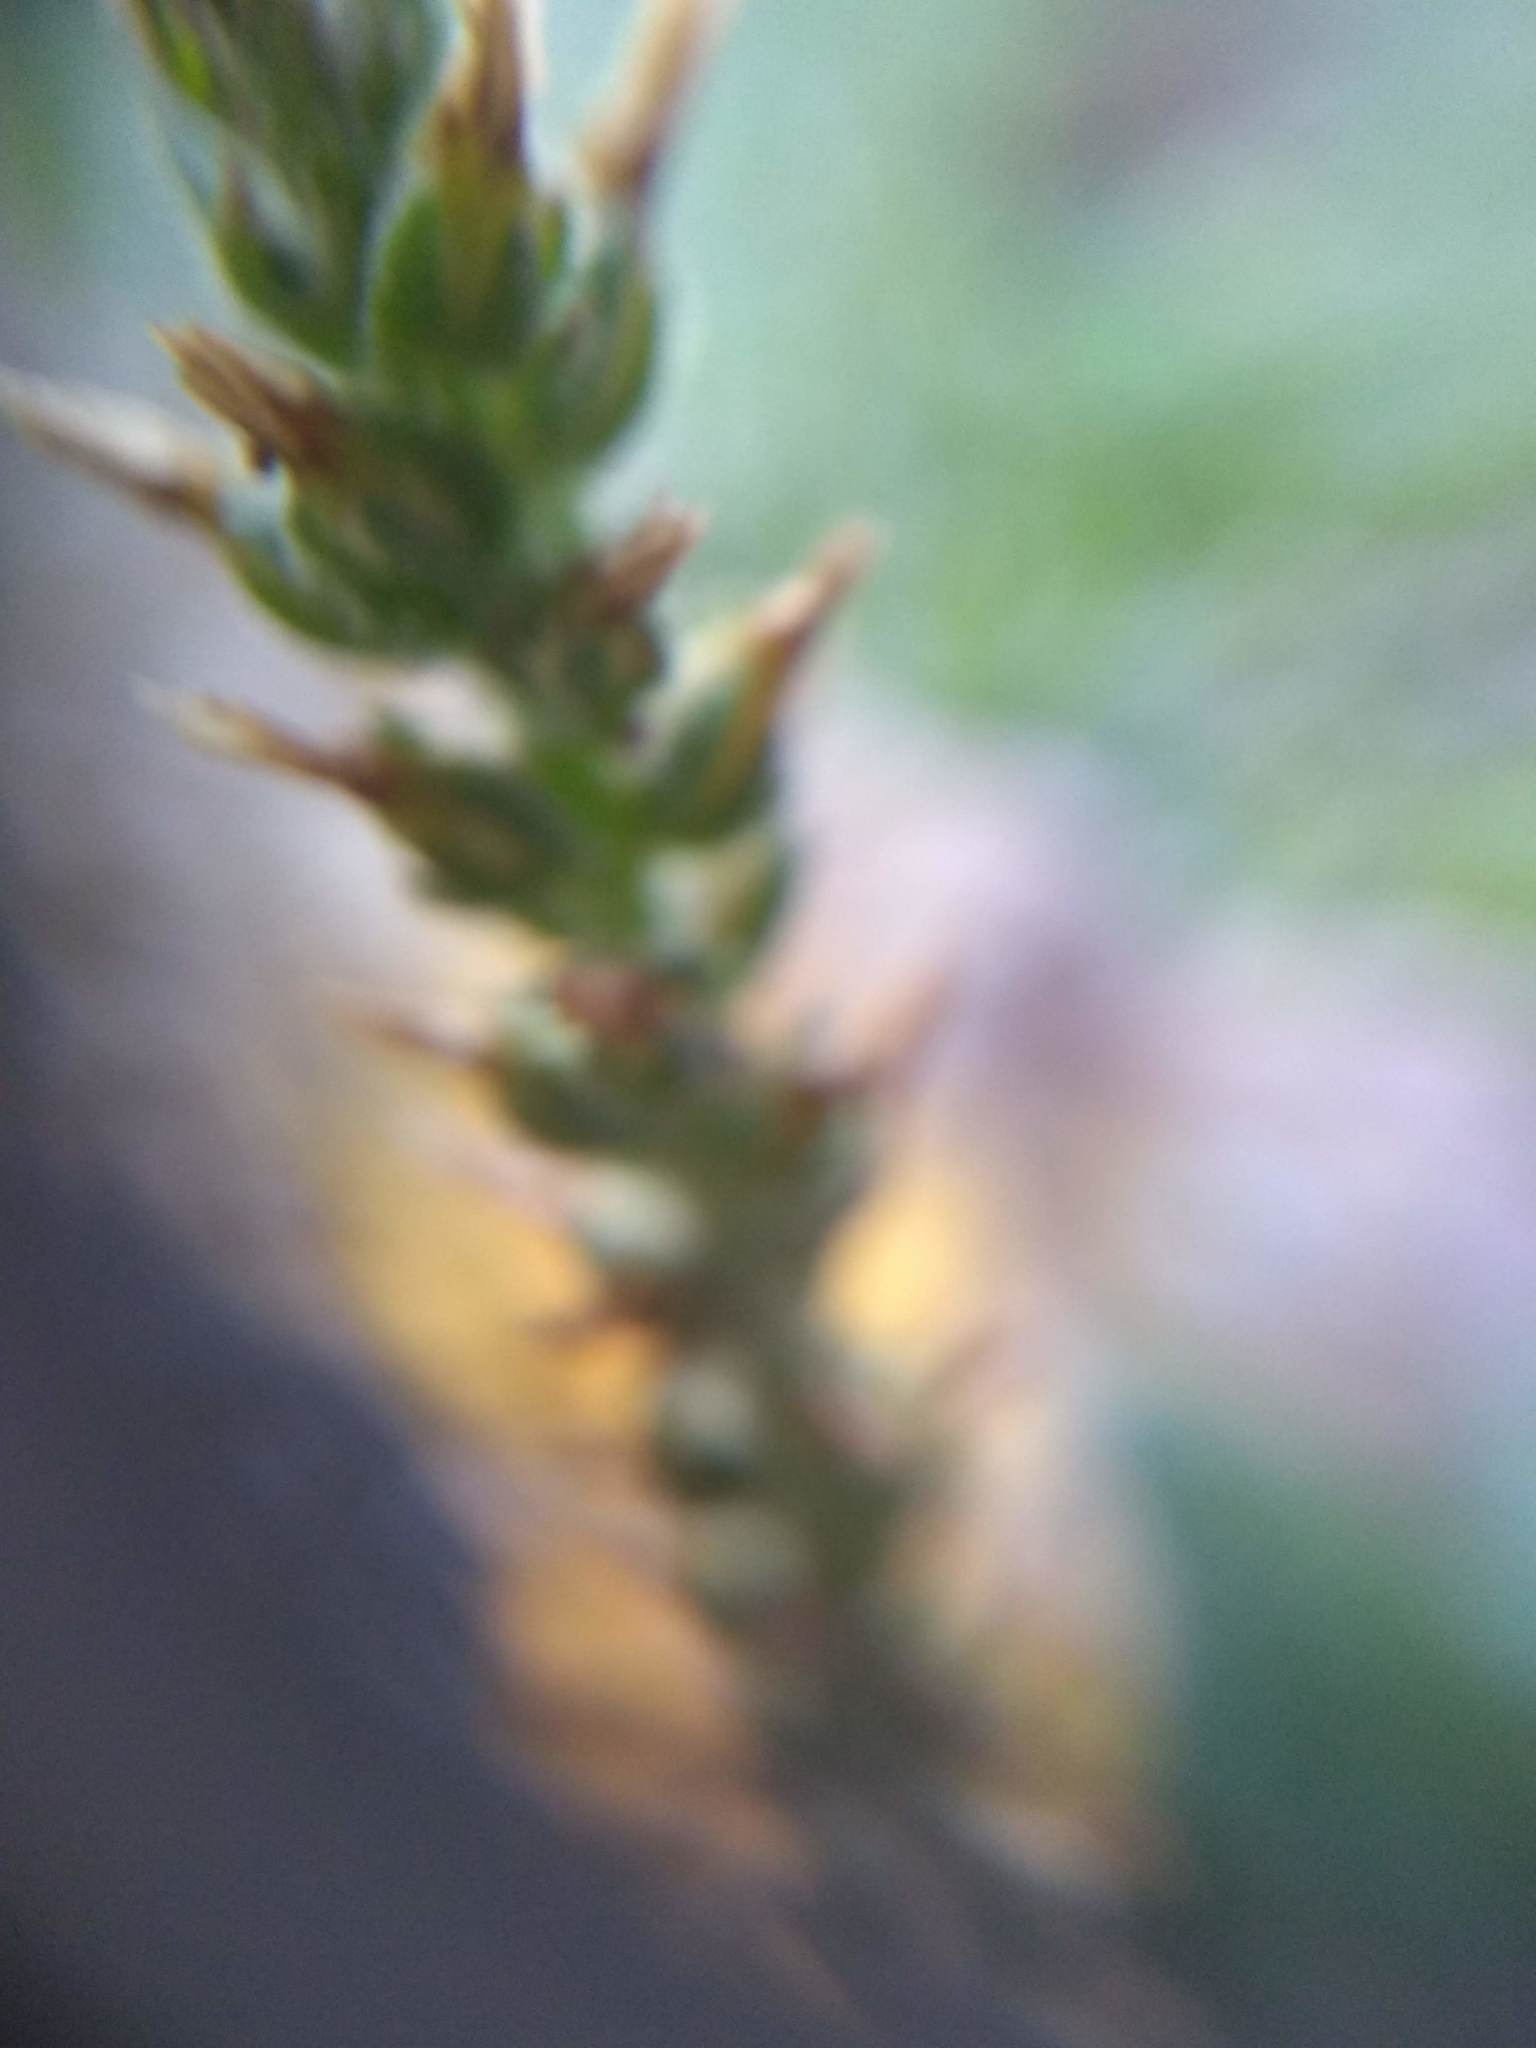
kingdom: Plantae
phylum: Tracheophyta
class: Magnoliopsida
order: Lamiales
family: Plantaginaceae
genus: Plantago
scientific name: Plantago major
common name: Common plantain
